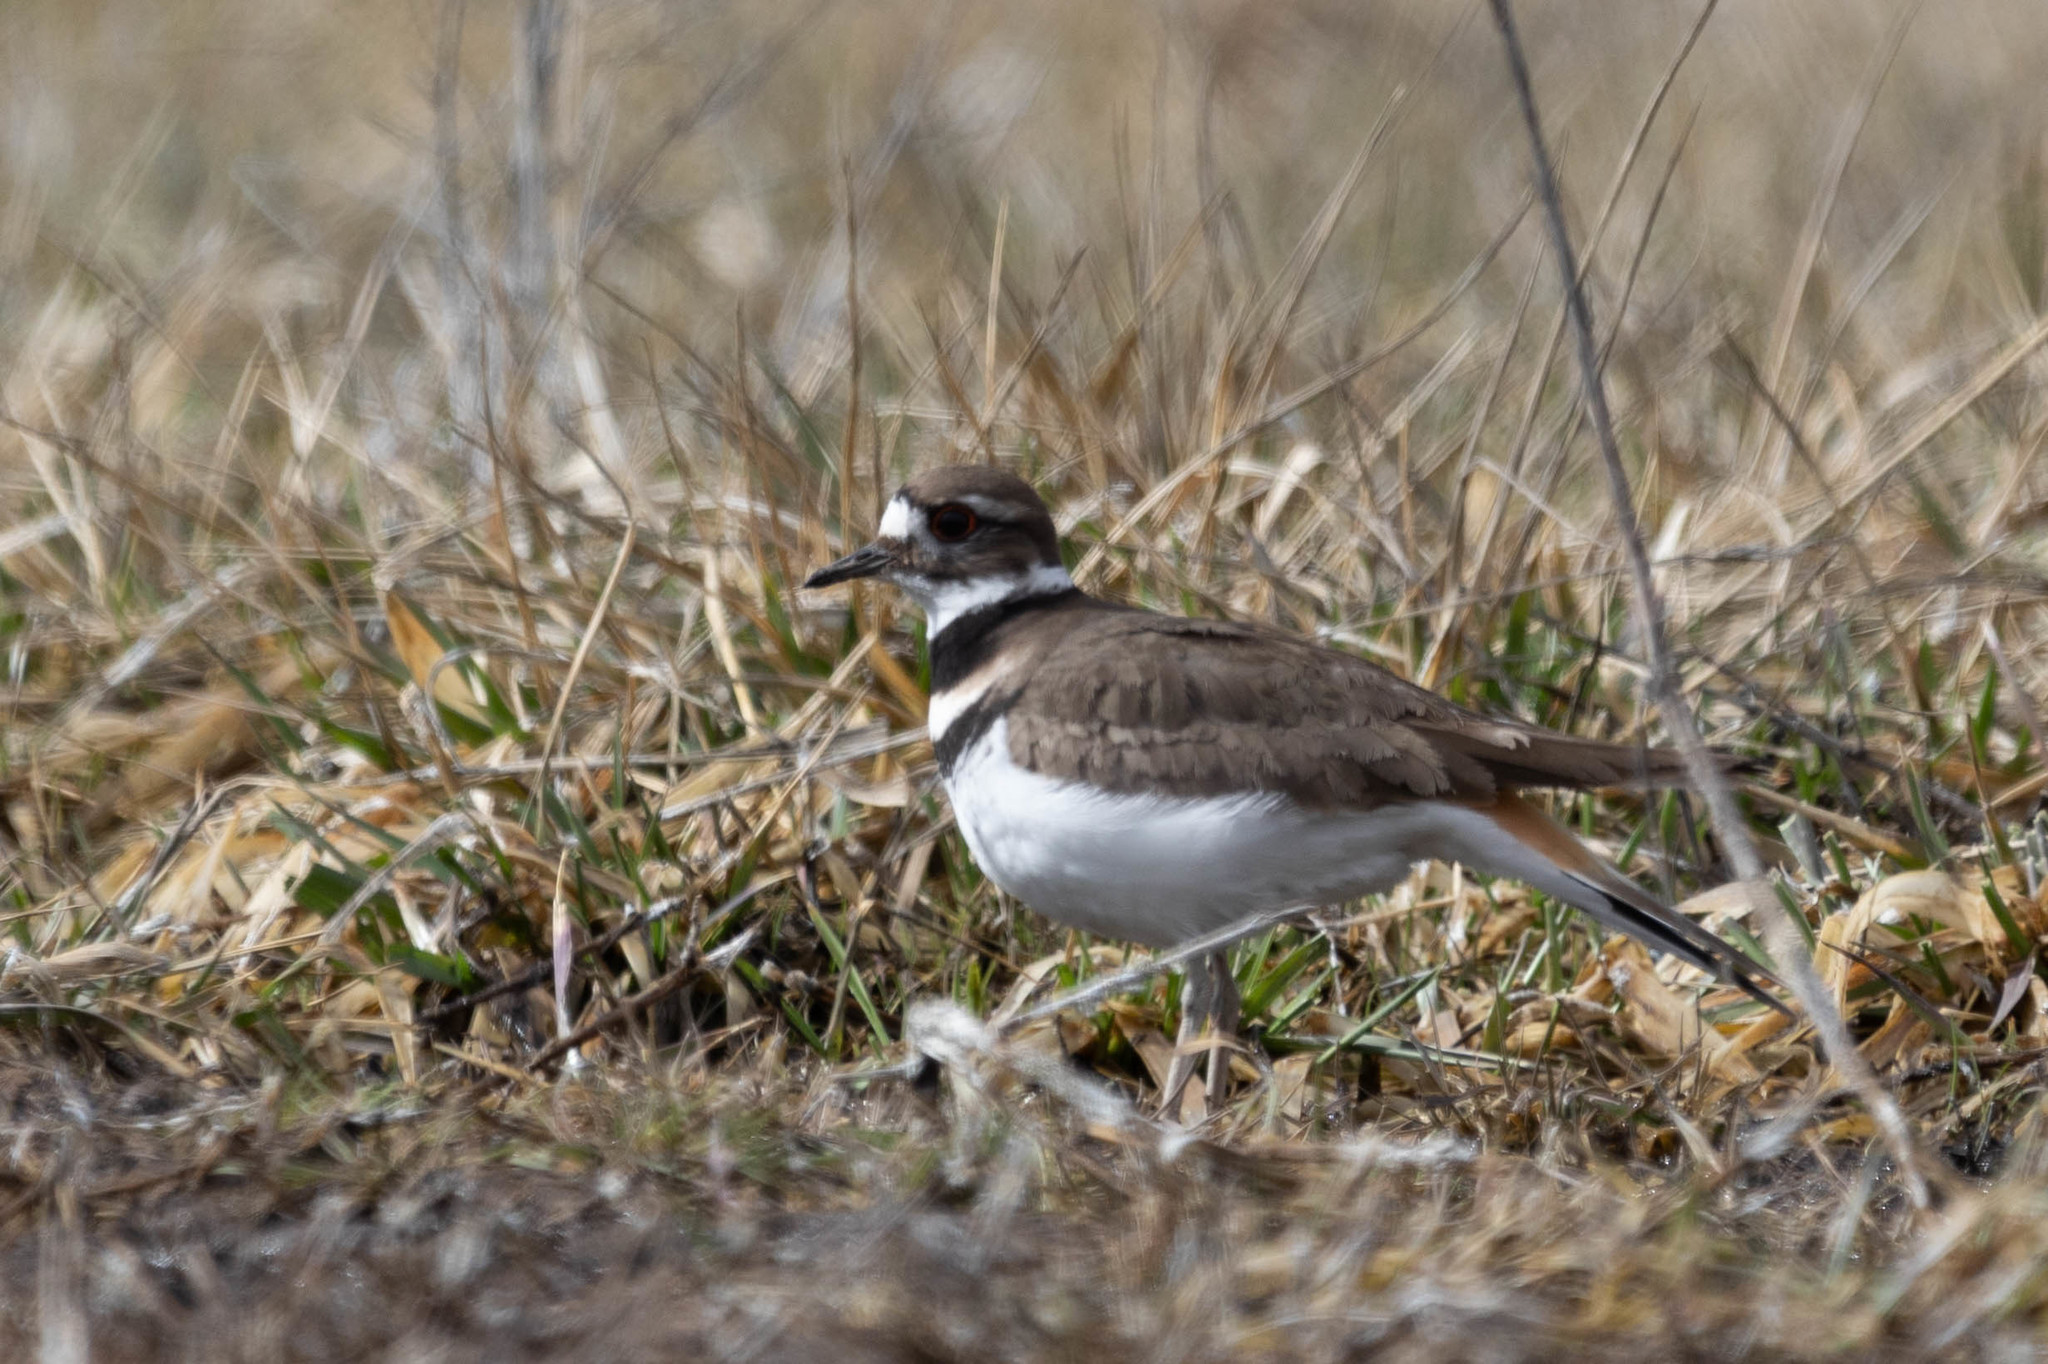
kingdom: Animalia
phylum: Chordata
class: Aves
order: Charadriiformes
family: Charadriidae
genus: Charadrius
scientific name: Charadrius vociferus
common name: Killdeer
